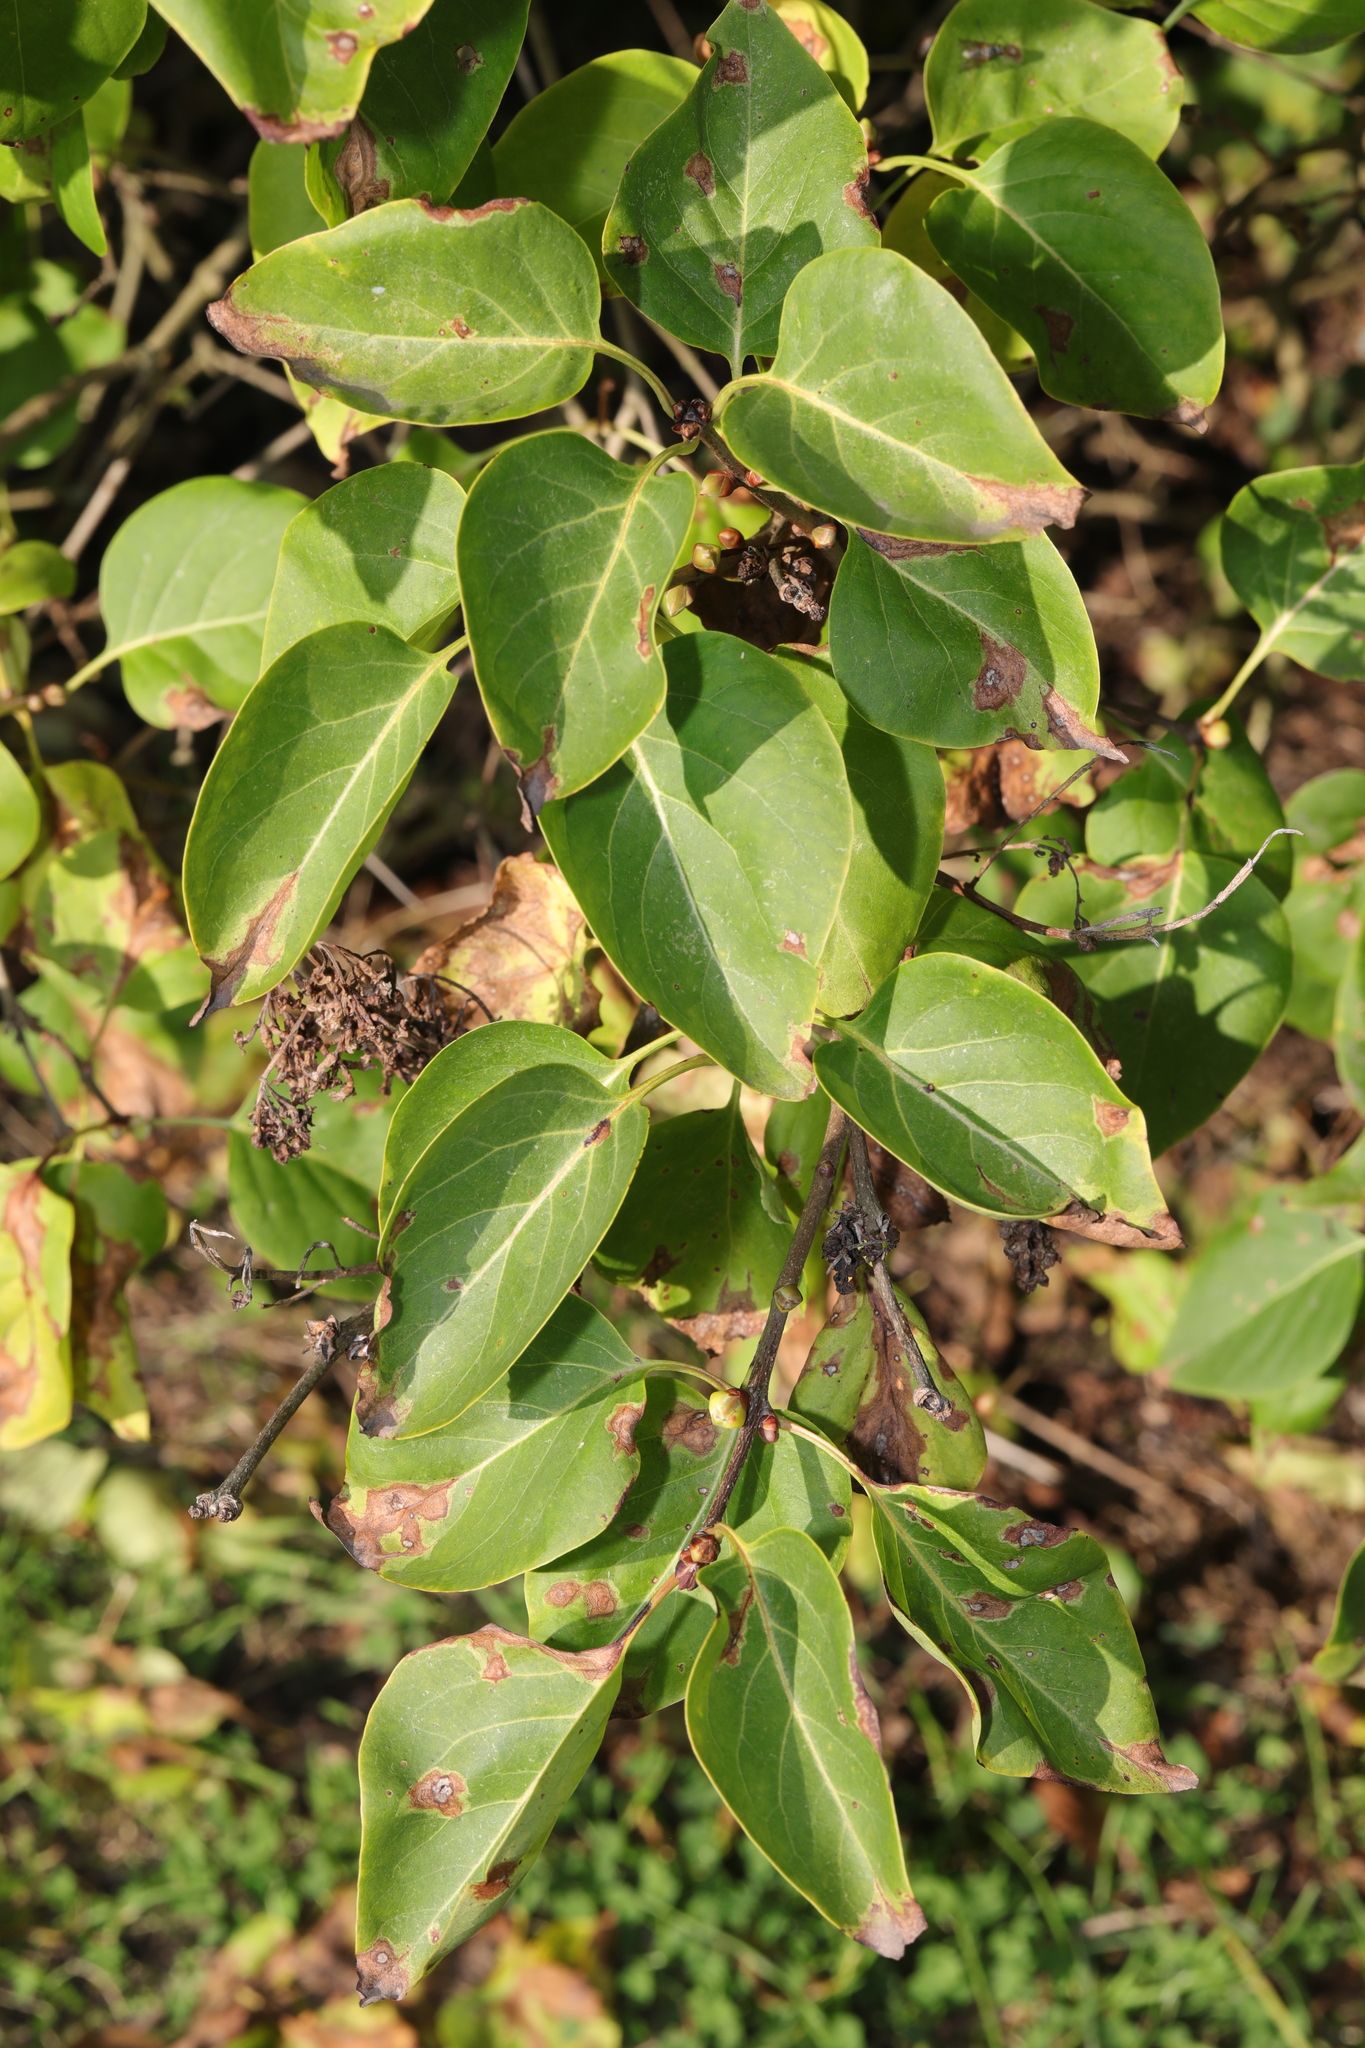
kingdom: Plantae
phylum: Tracheophyta
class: Magnoliopsida
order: Lamiales
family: Oleaceae
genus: Syringa
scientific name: Syringa vulgaris
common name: Common lilac
